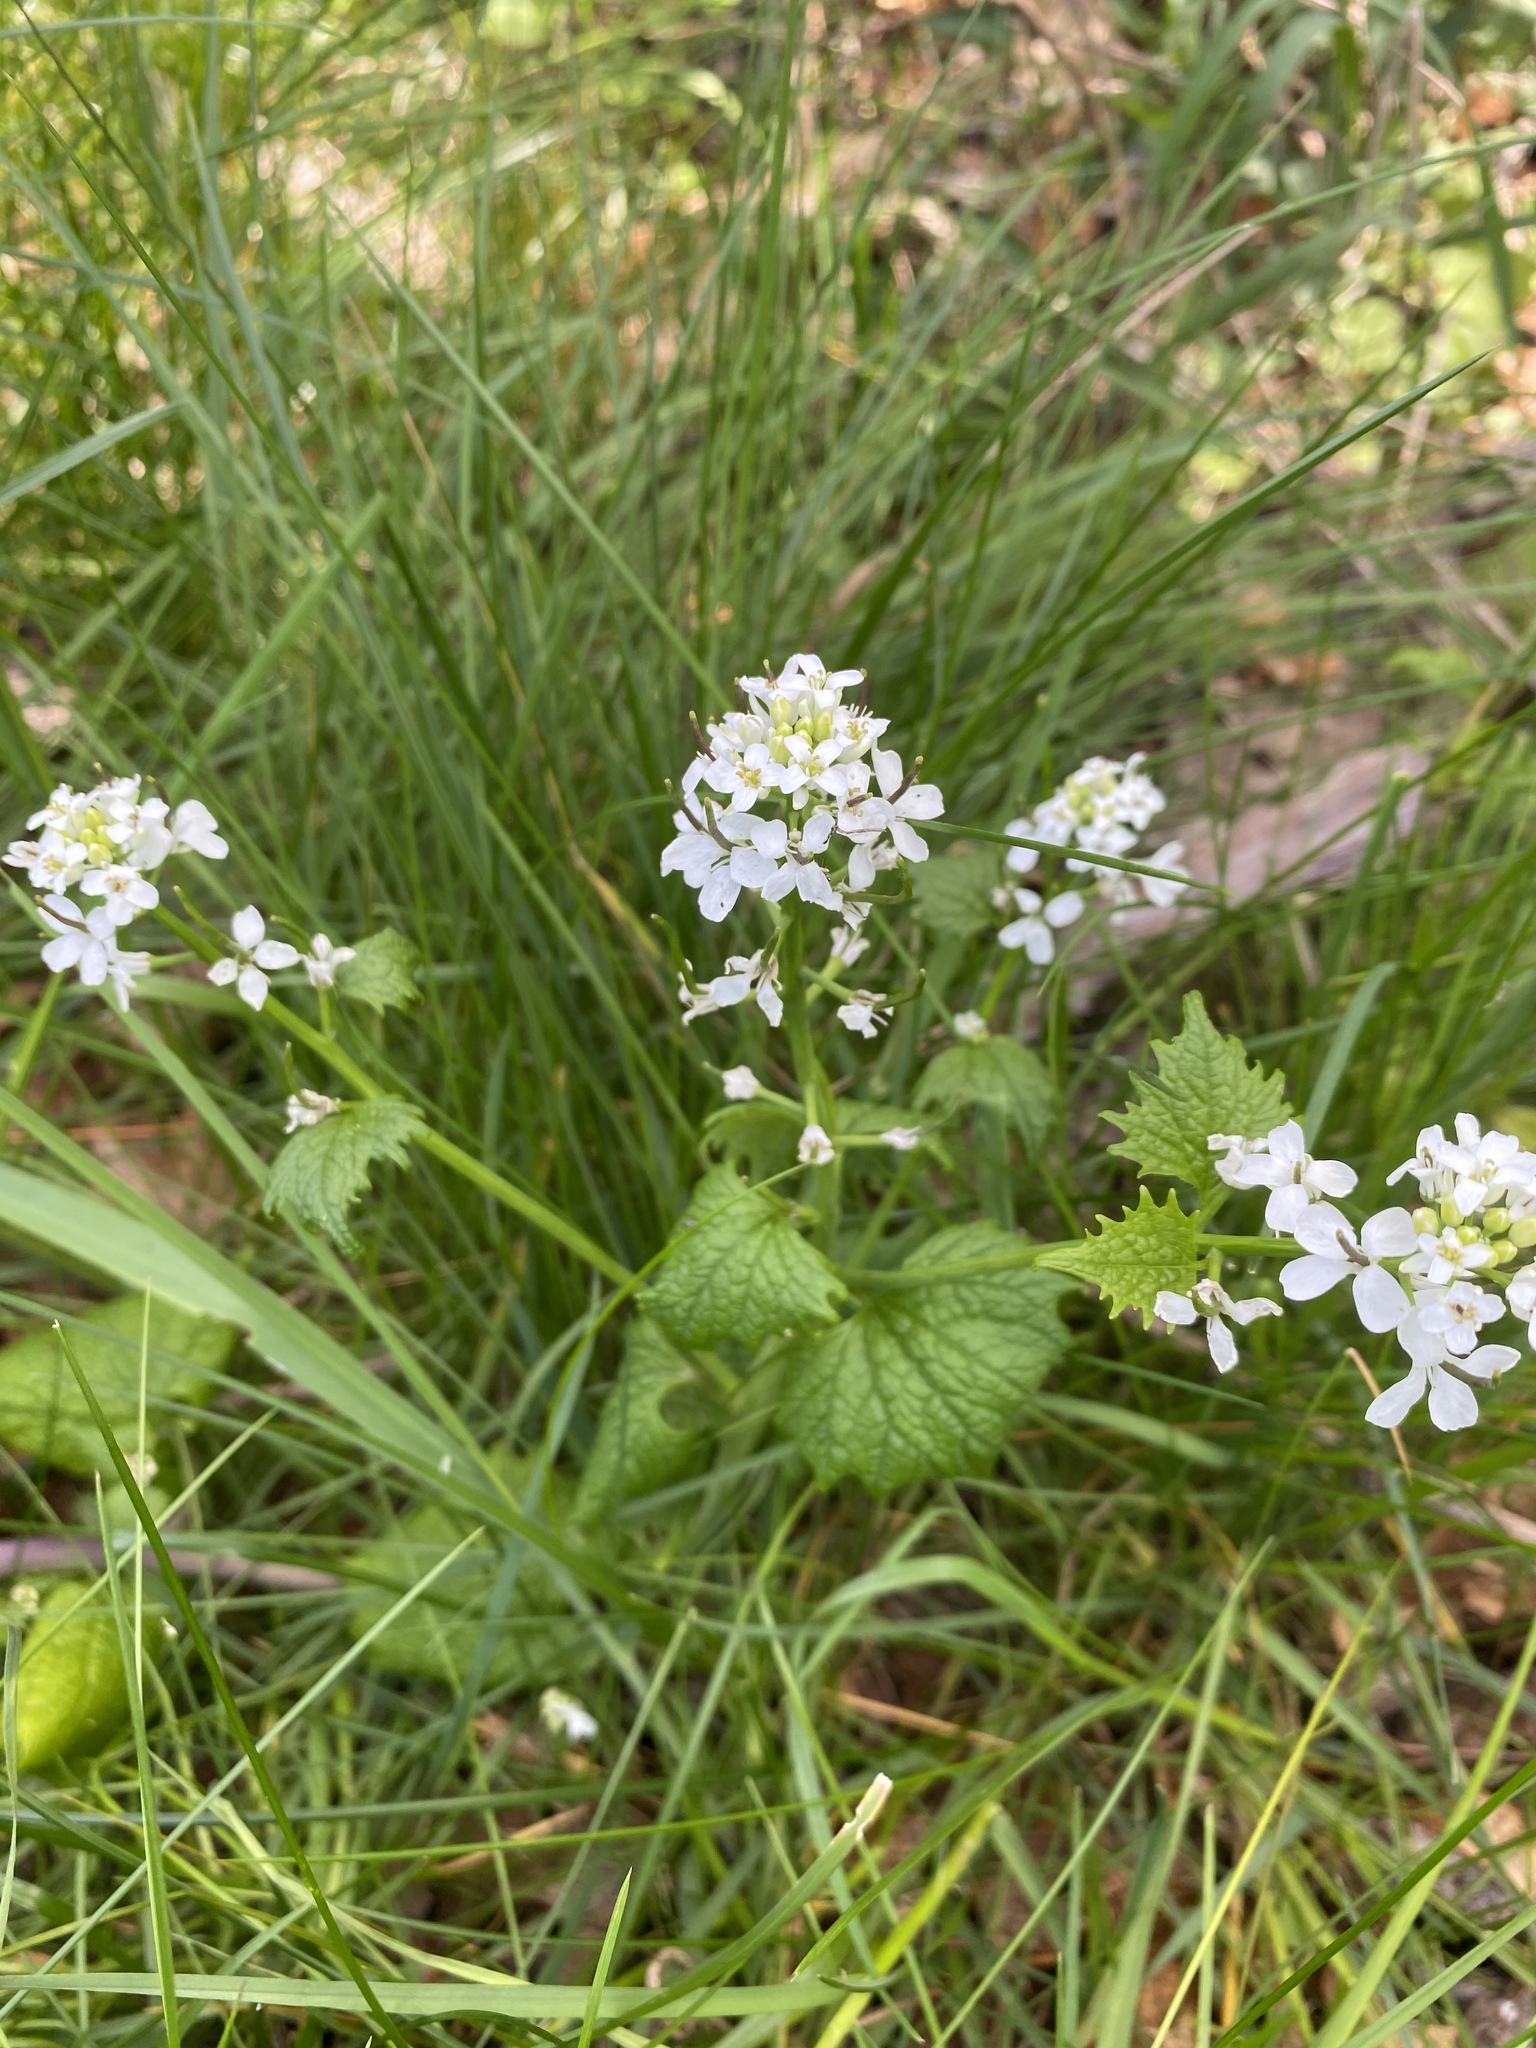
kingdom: Plantae
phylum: Tracheophyta
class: Magnoliopsida
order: Brassicales
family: Brassicaceae
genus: Alliaria
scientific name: Alliaria petiolata
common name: Garlic mustard
